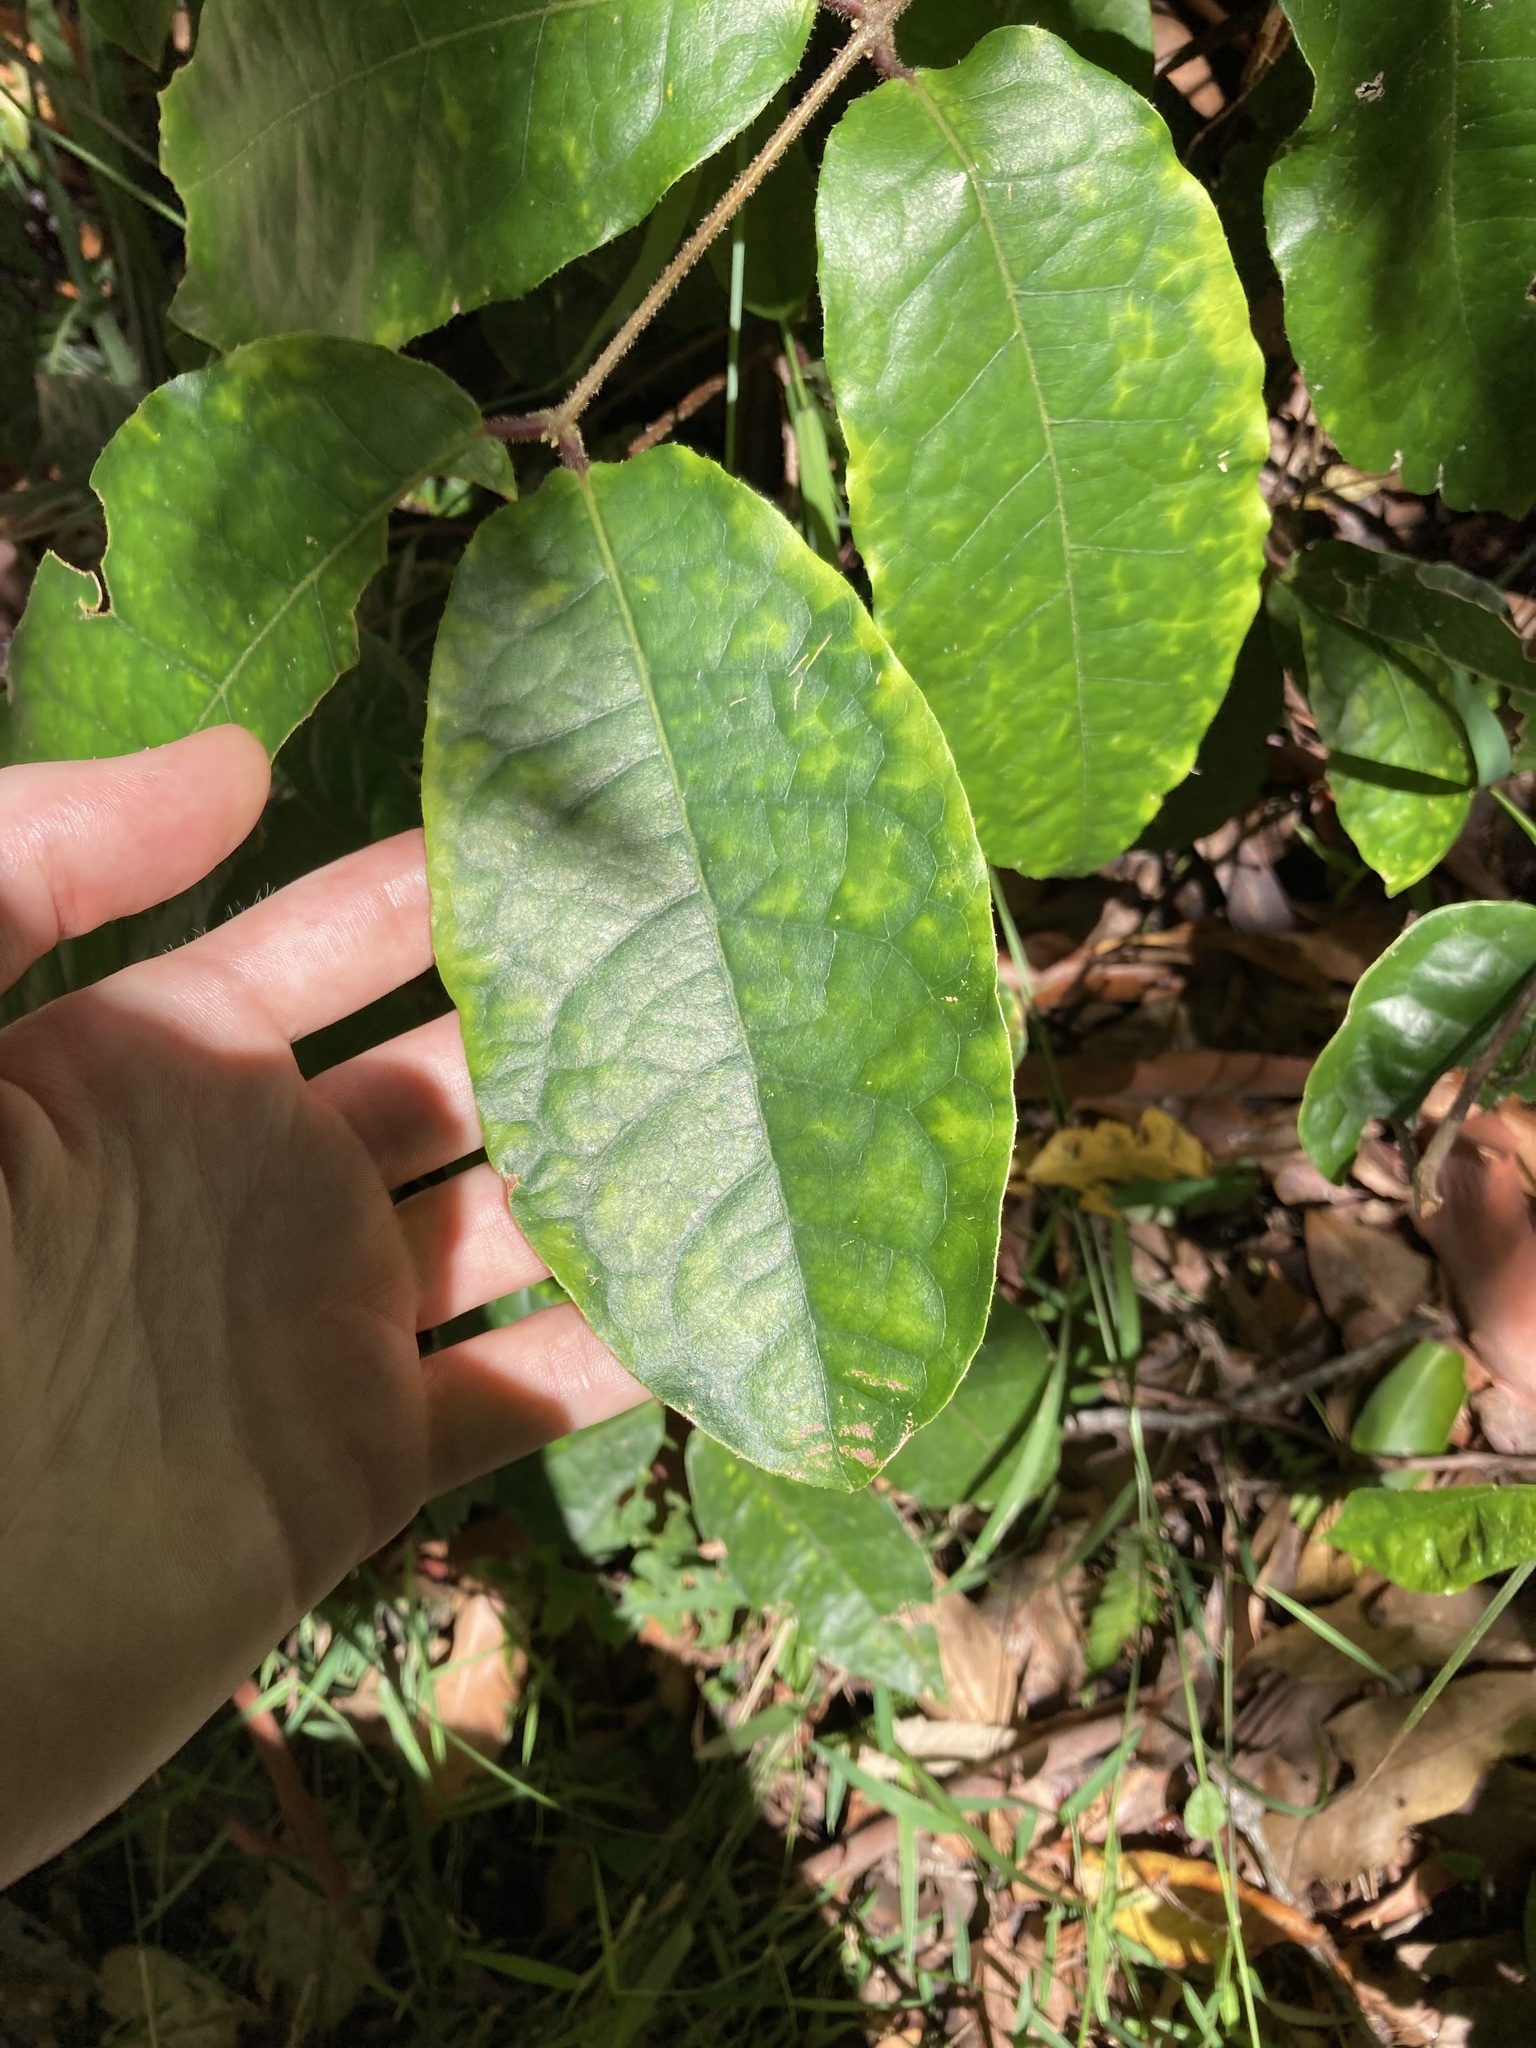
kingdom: Plantae
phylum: Tracheophyta
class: Magnoliopsida
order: Laurales
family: Monimiaceae
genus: Palmeria
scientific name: Palmeria scandens
